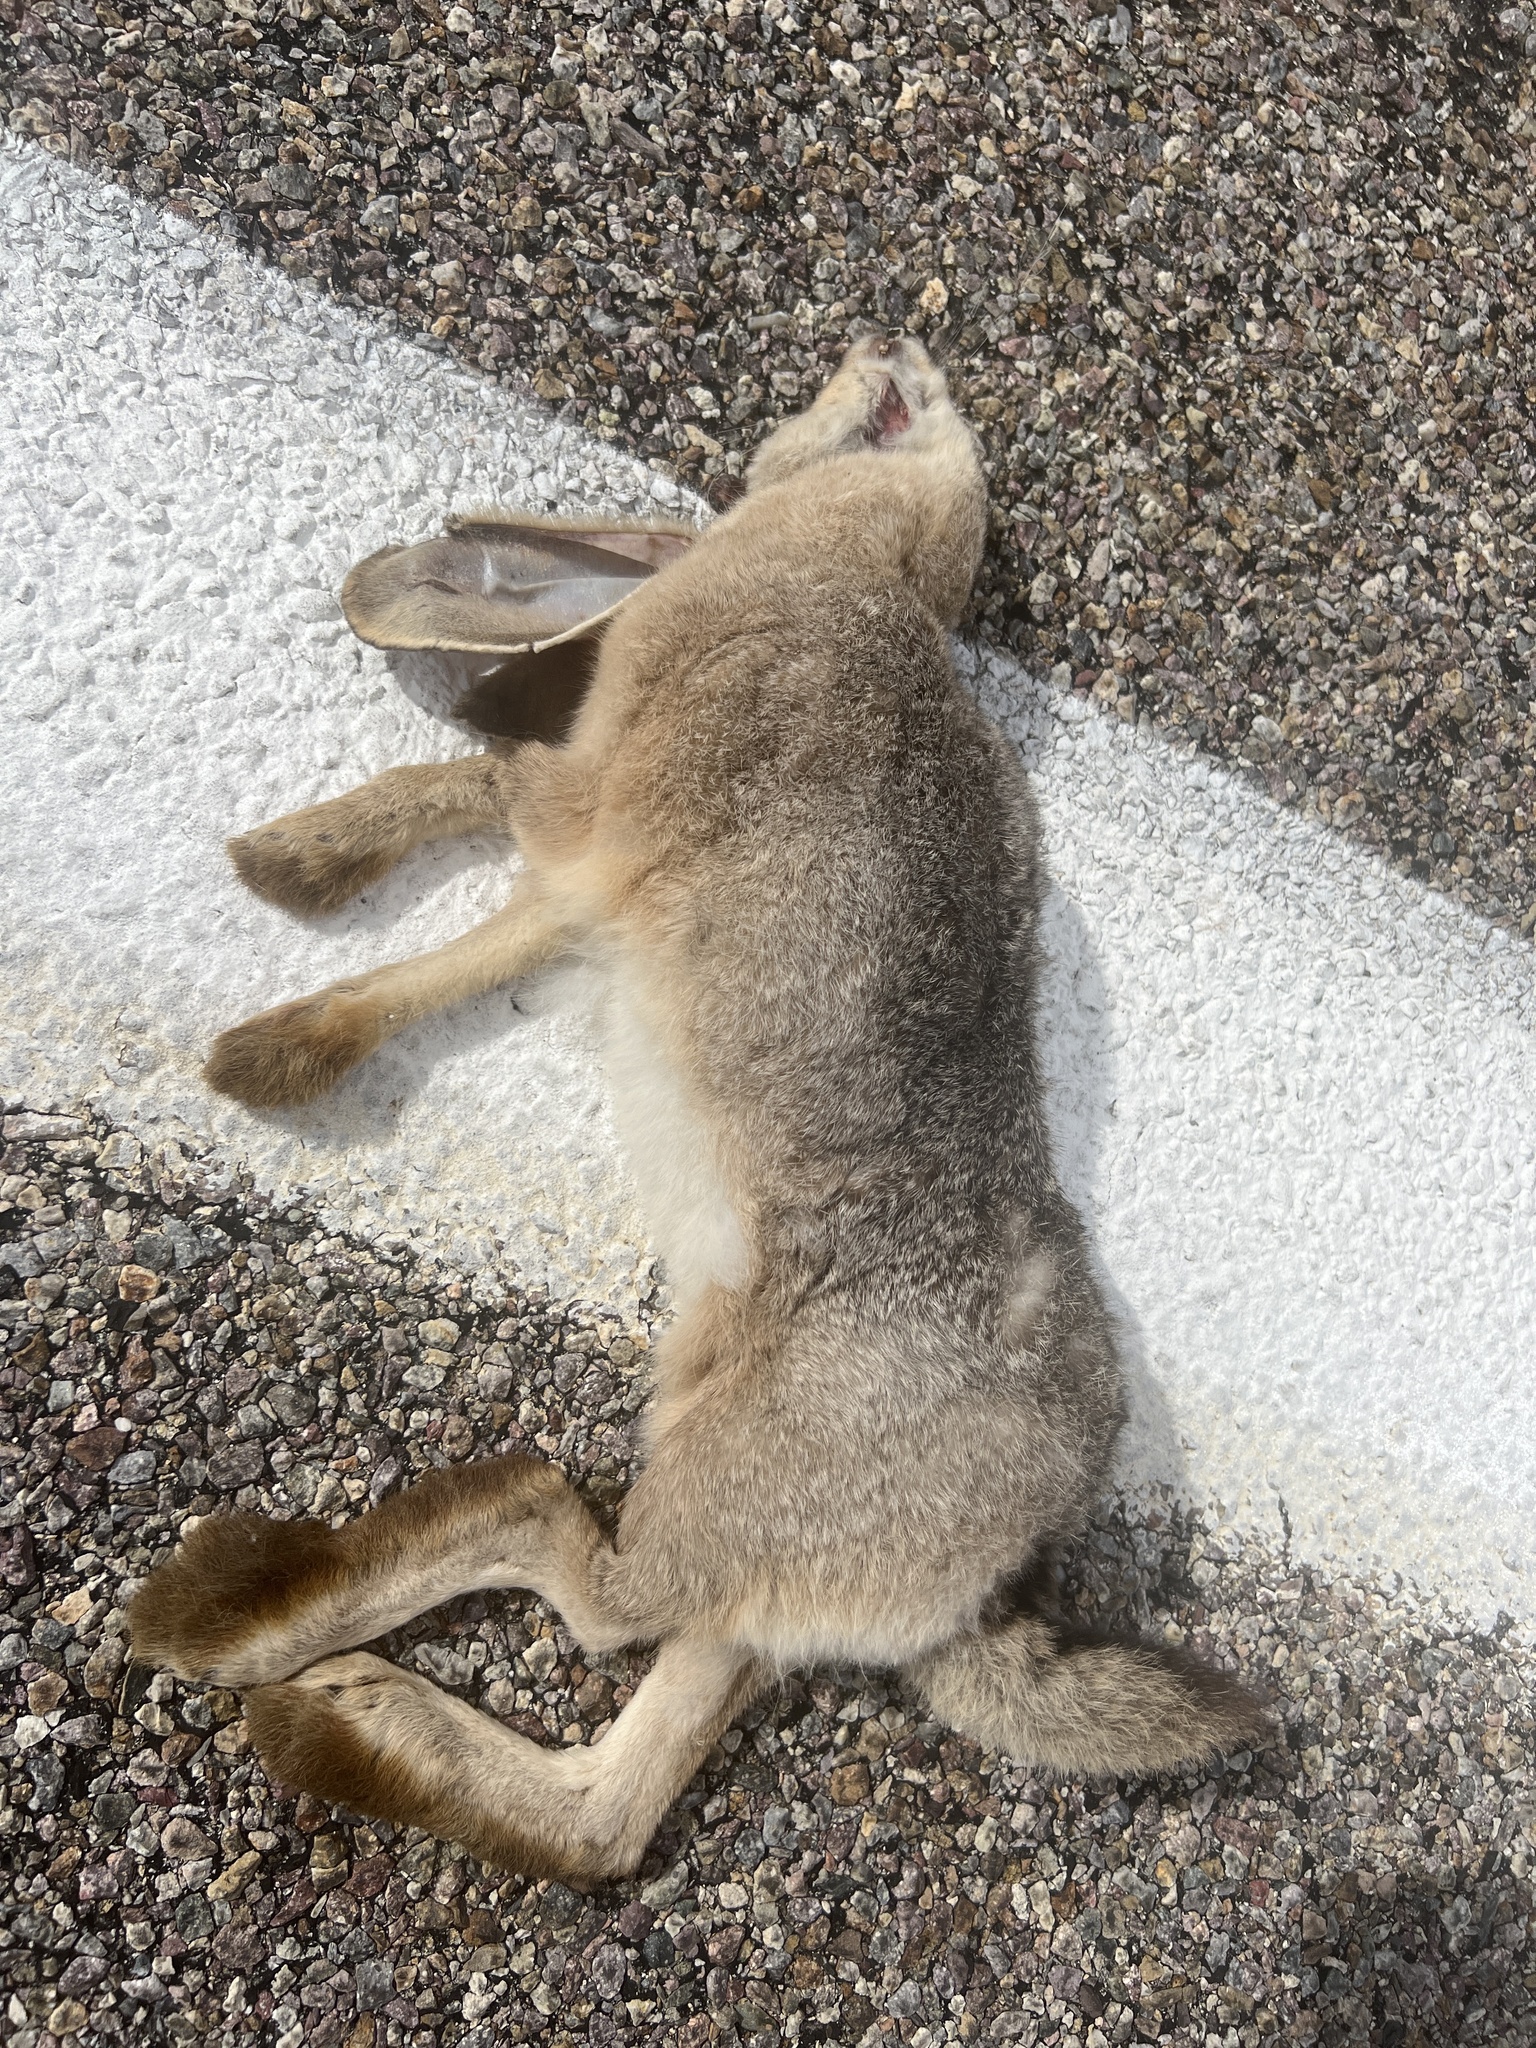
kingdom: Animalia
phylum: Chordata
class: Mammalia
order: Lagomorpha
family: Leporidae
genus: Lepus
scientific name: Lepus californicus
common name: Black-tailed jackrabbit
